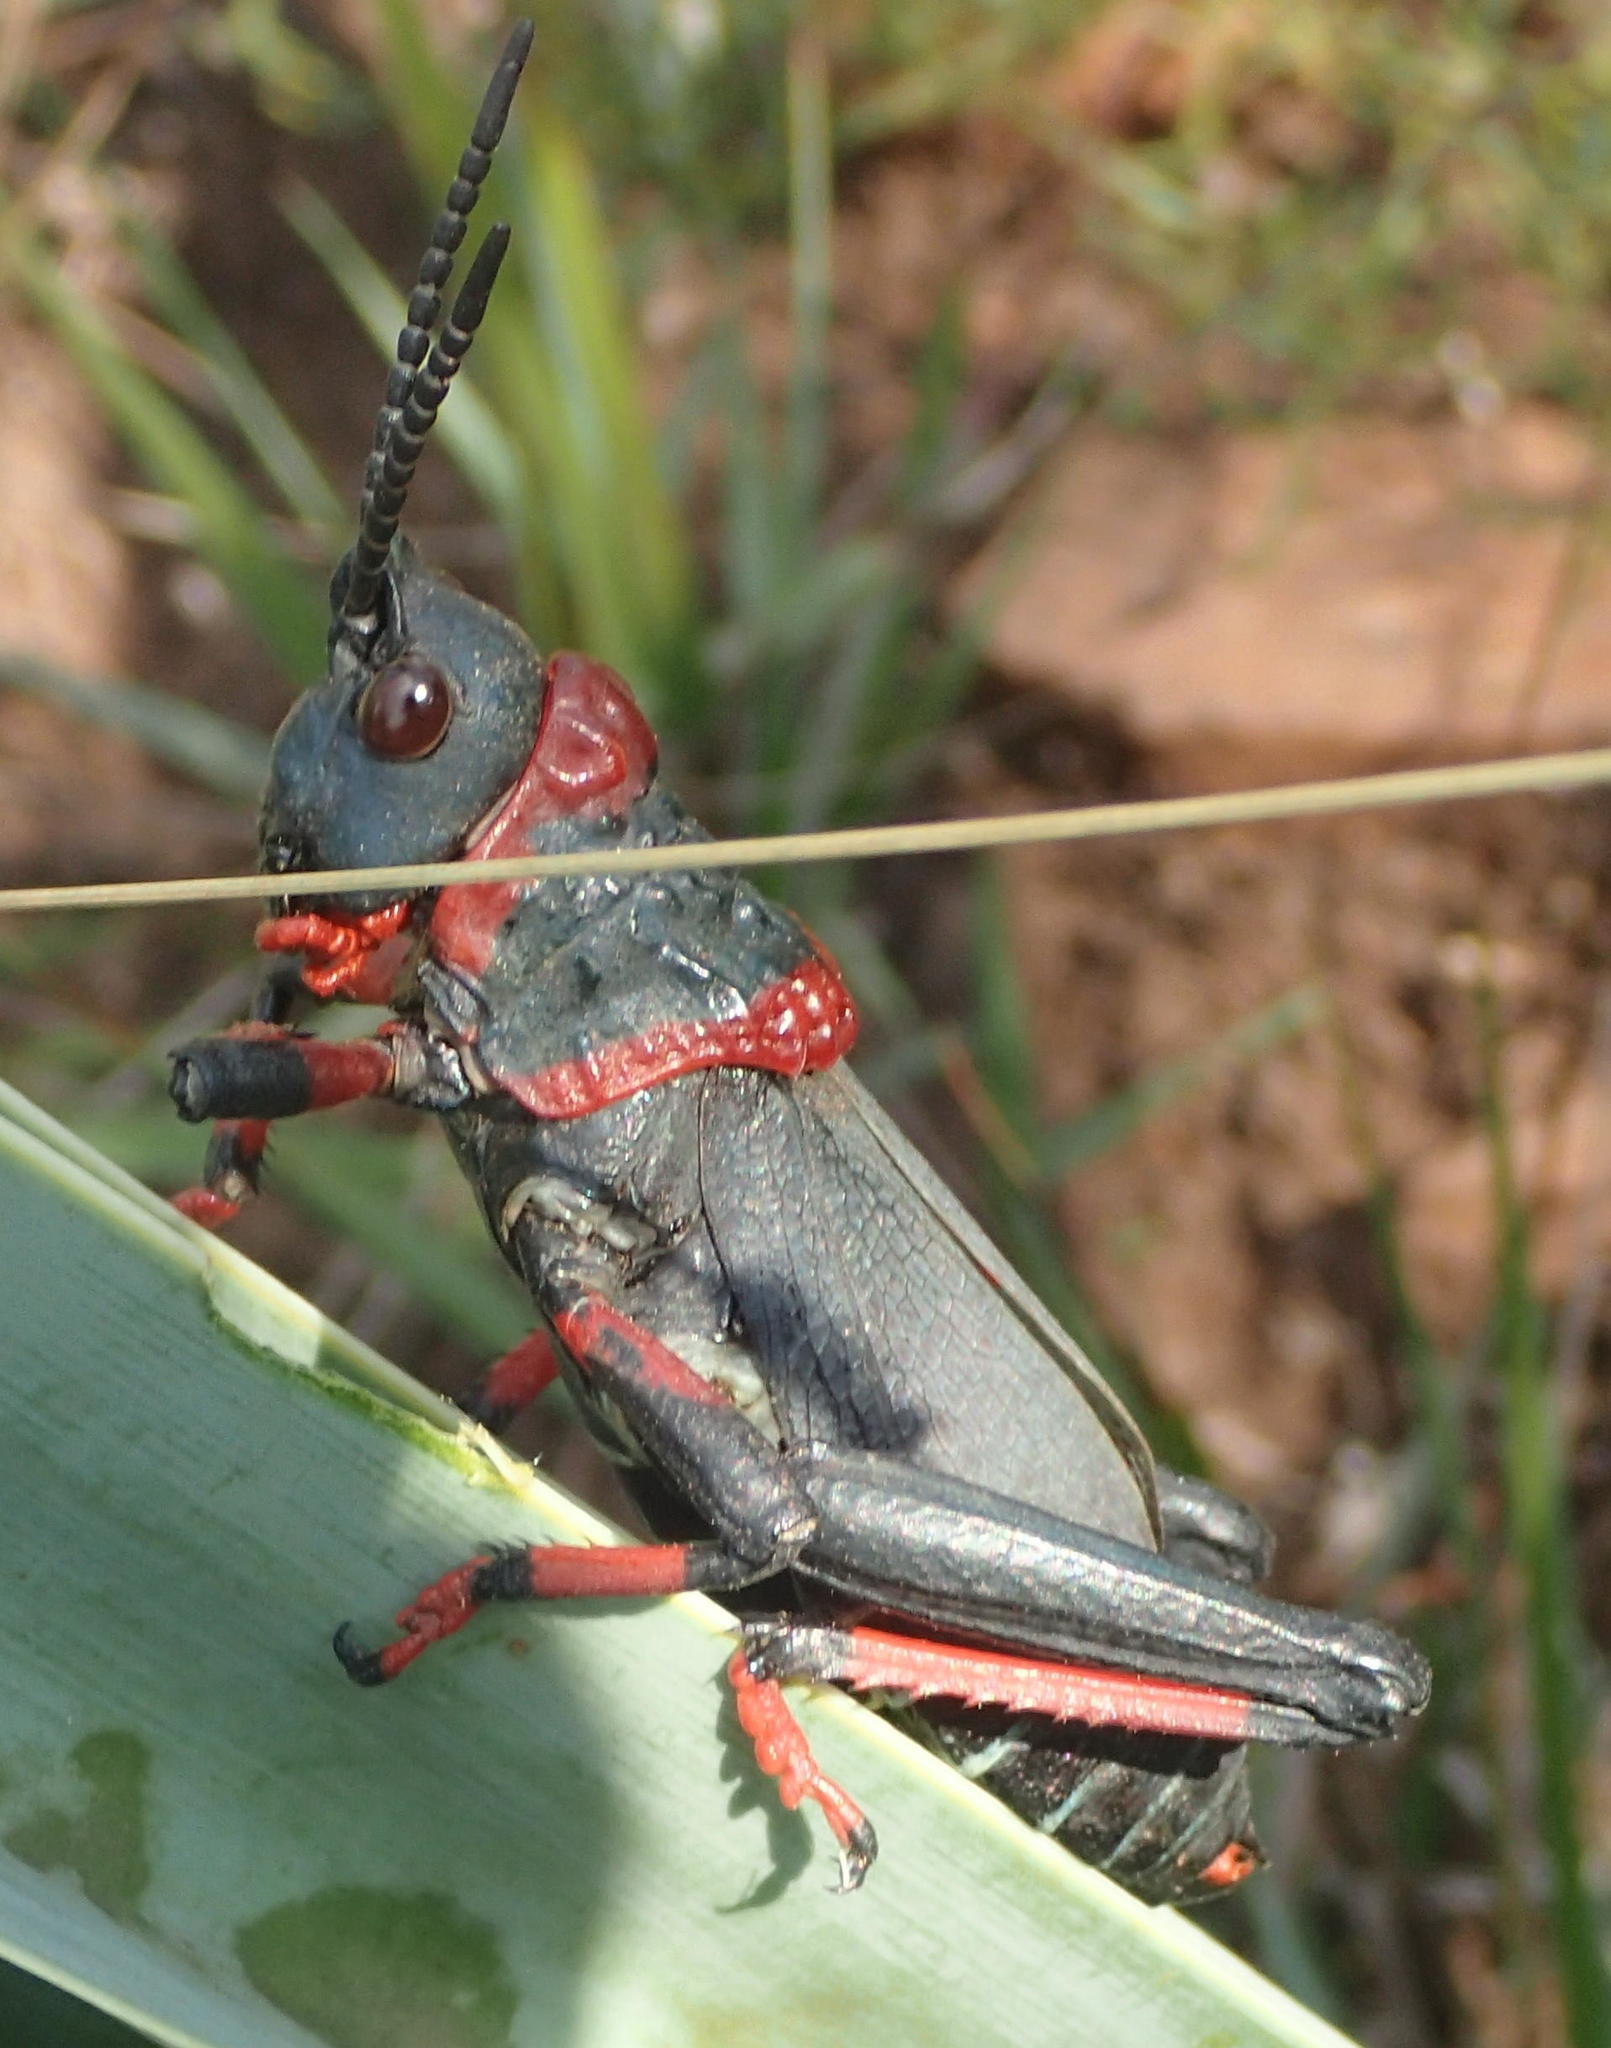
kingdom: Animalia
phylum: Arthropoda
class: Insecta
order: Orthoptera
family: Pyrgomorphidae
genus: Dictyophorus
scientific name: Dictyophorus spumans
